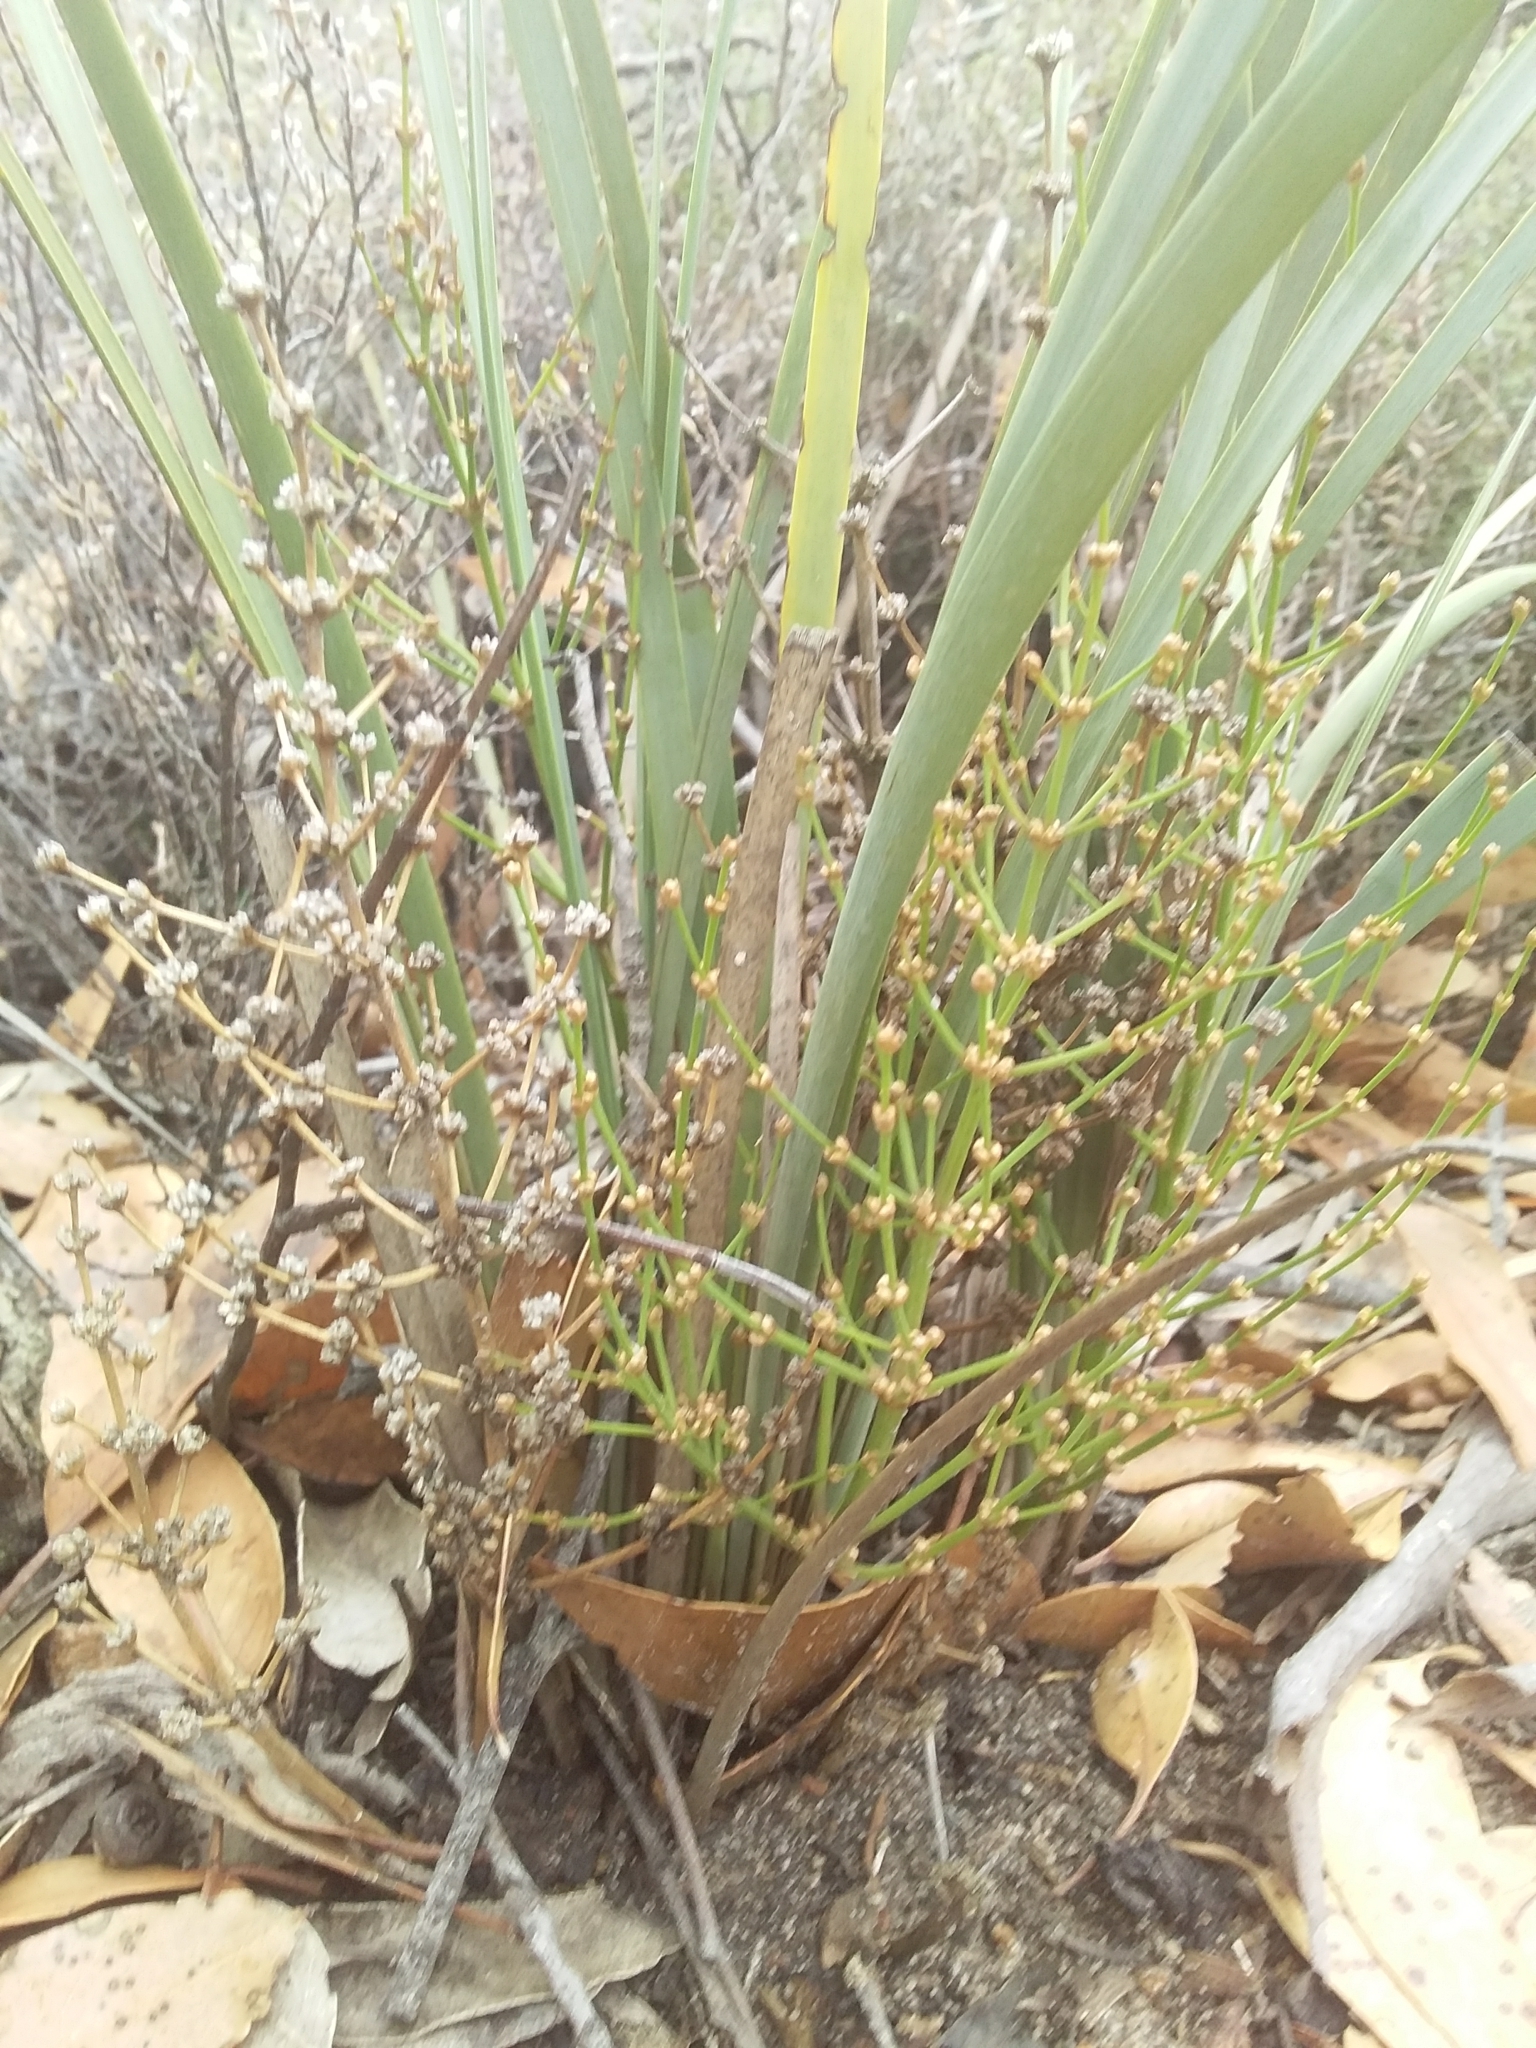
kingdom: Plantae
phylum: Tracheophyta
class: Liliopsida
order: Asparagales
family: Asparagaceae
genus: Lomandra
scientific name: Lomandra multiflora
